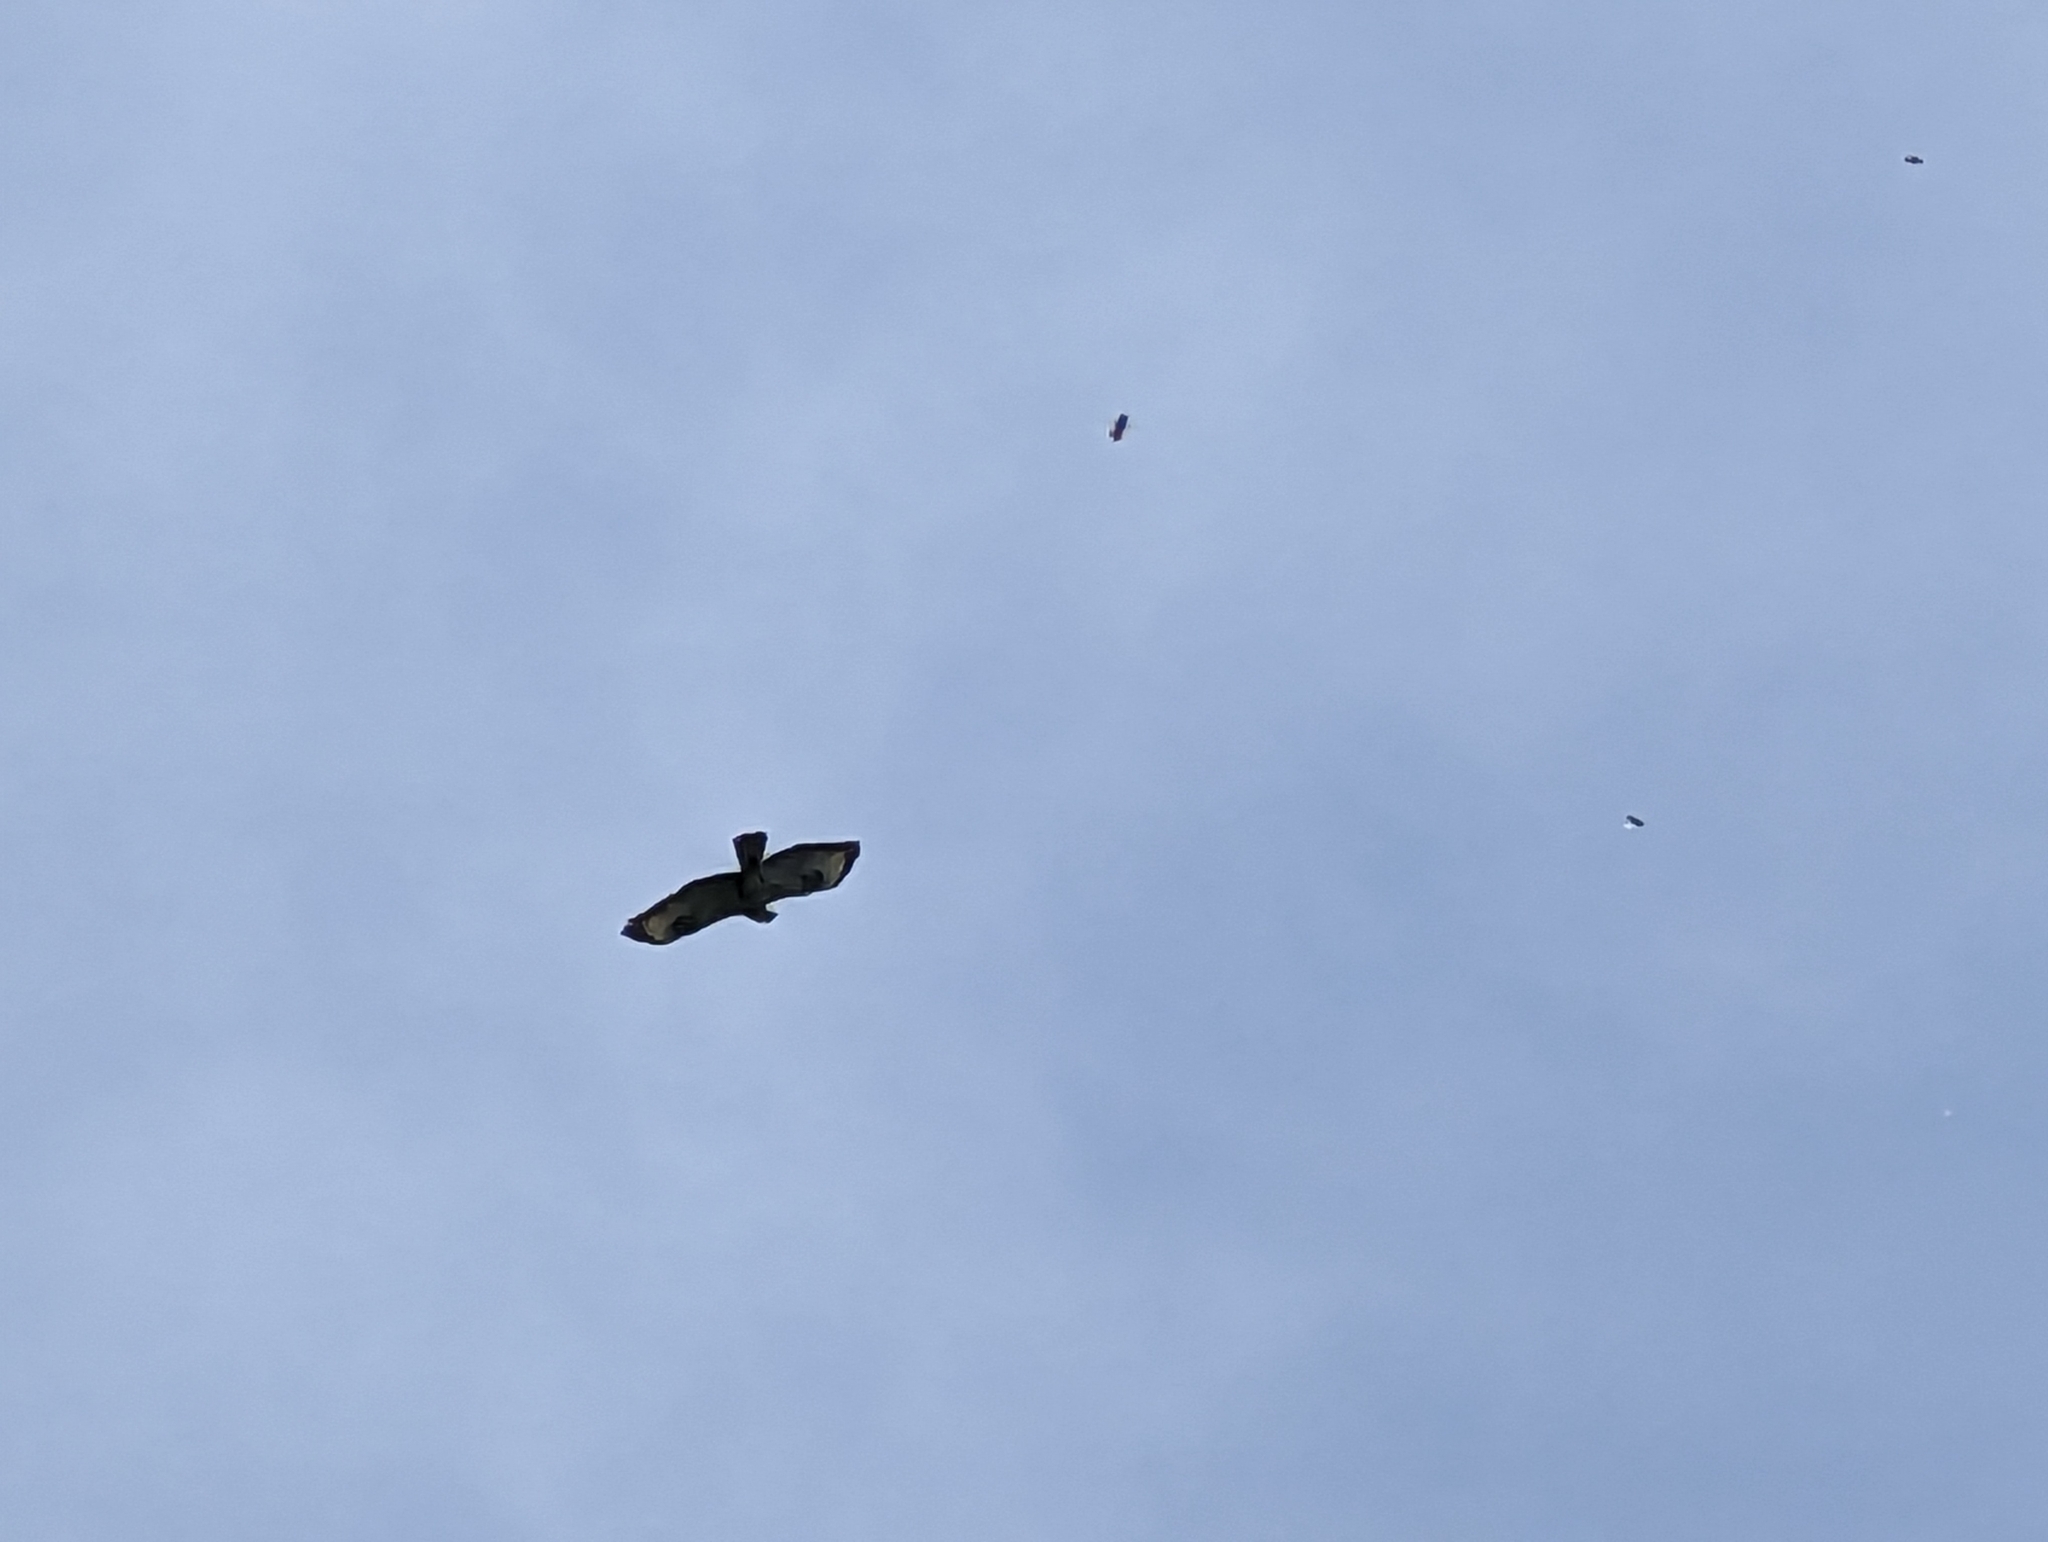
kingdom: Animalia
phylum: Chordata
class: Aves
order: Accipitriformes
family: Accipitridae
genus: Buteo
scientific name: Buteo buteo
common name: Common buzzard
